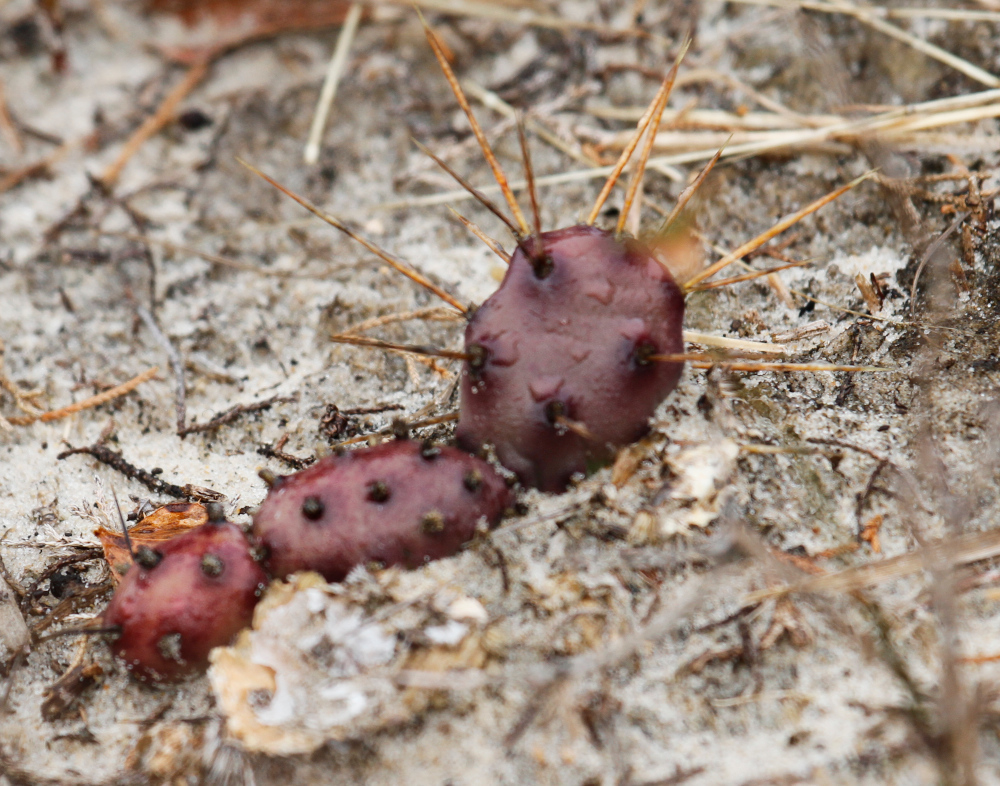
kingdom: Plantae
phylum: Tracheophyta
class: Magnoliopsida
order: Caryophyllales
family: Cactaceae
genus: Opuntia
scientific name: Opuntia drummondii
